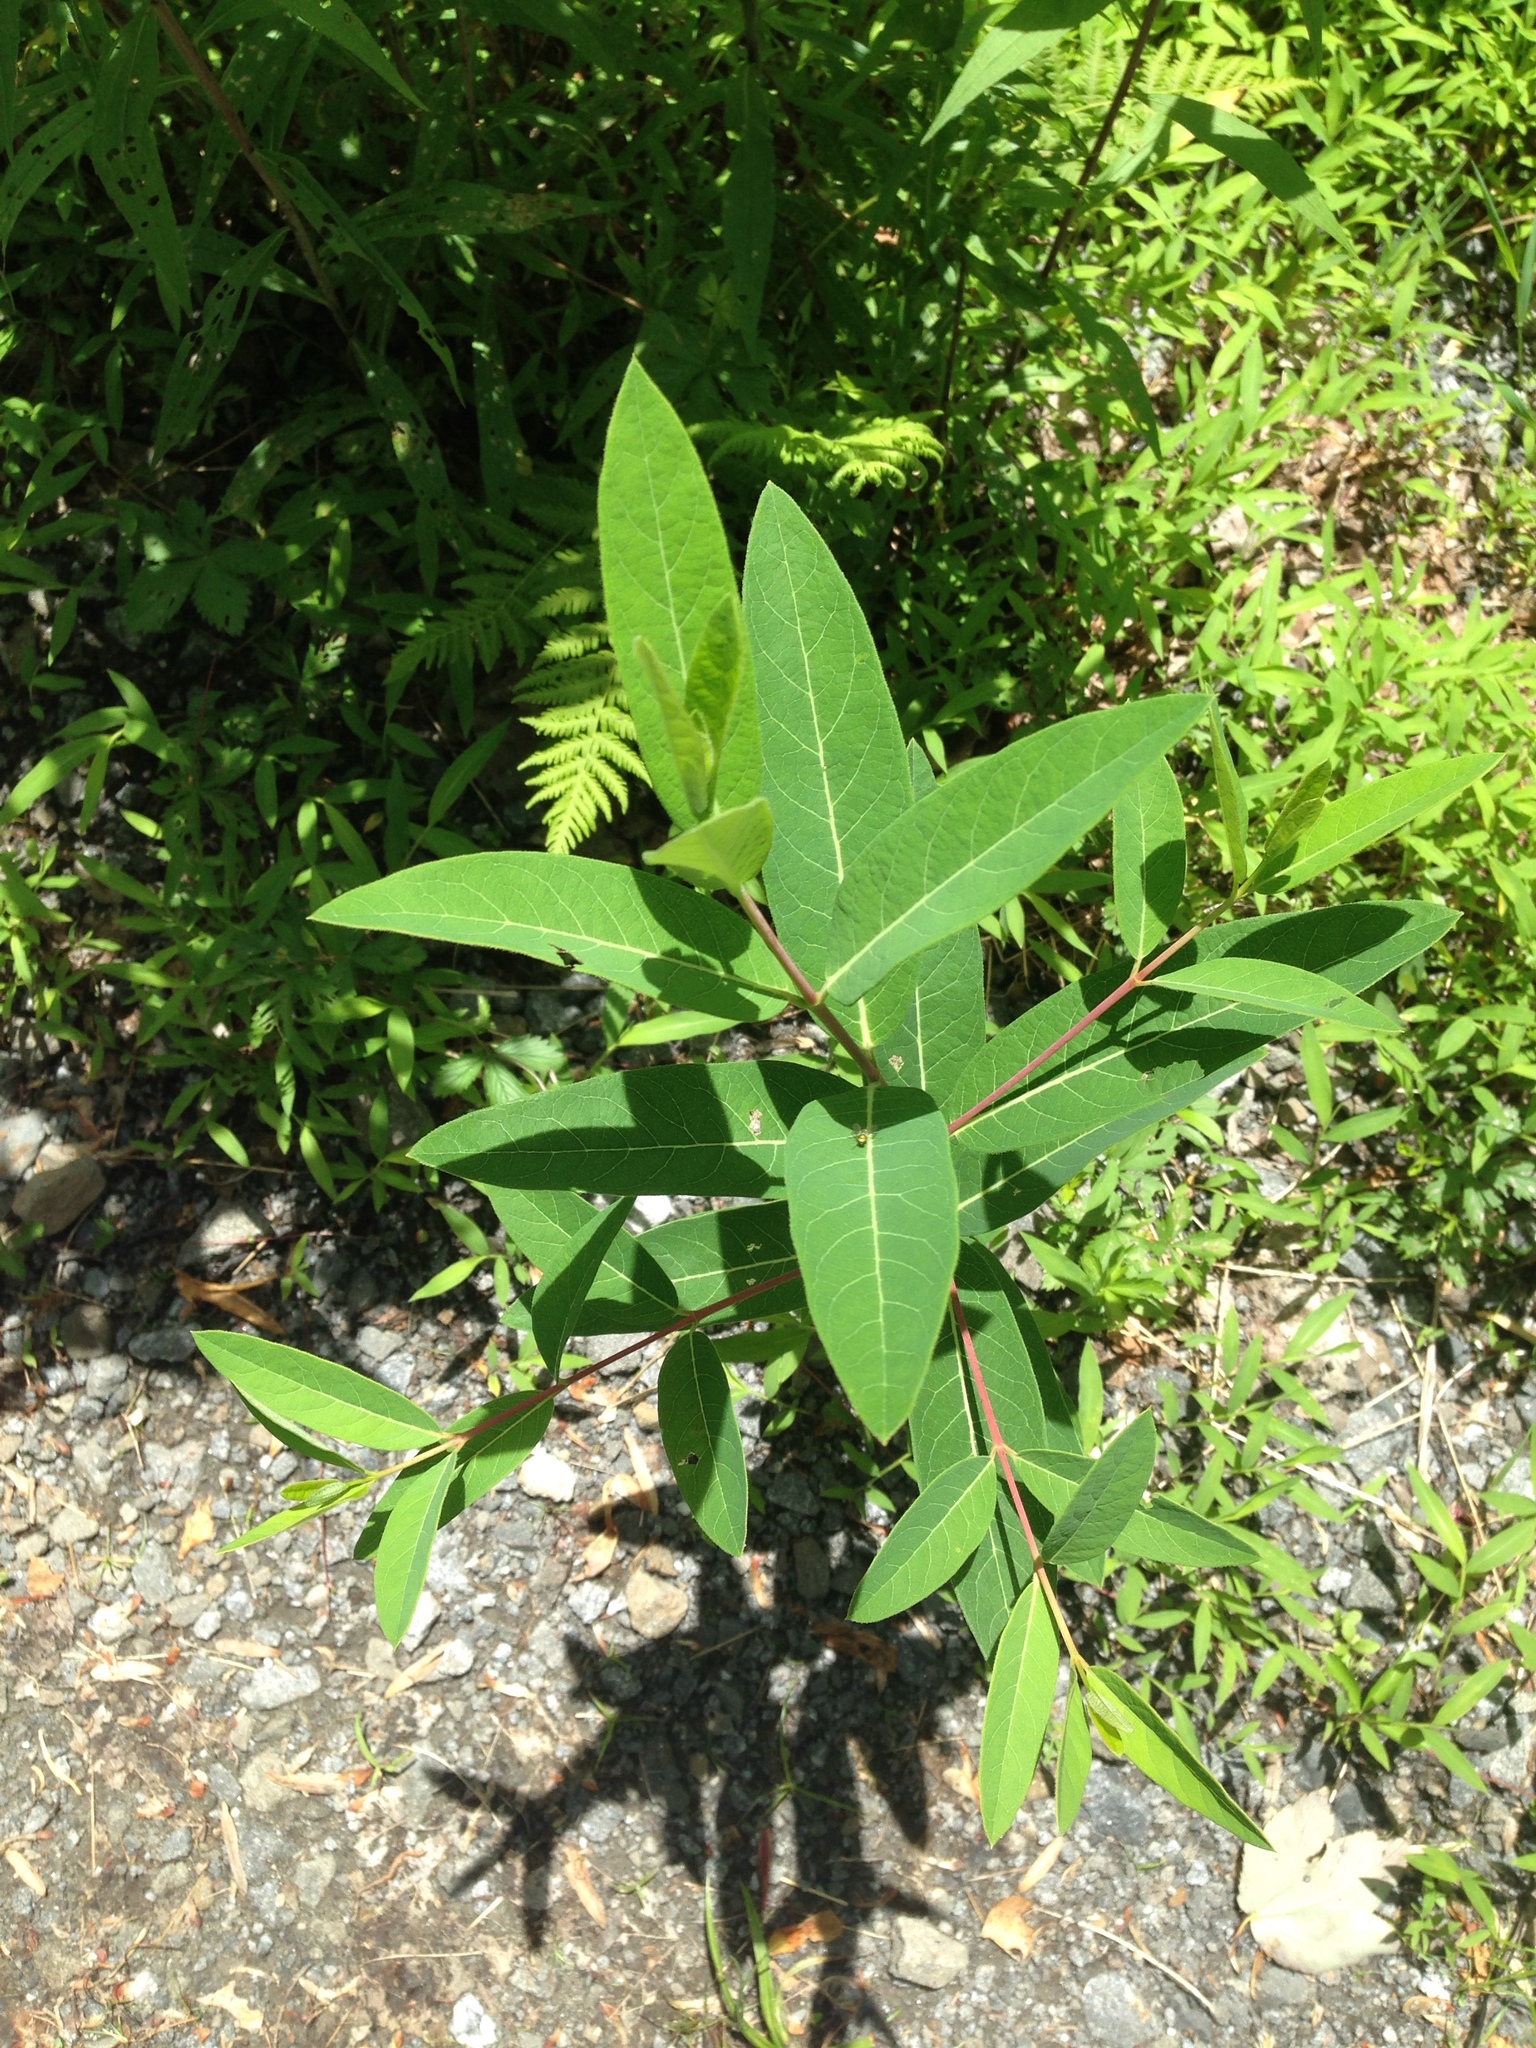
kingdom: Plantae
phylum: Tracheophyta
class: Magnoliopsida
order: Gentianales
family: Apocynaceae
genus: Apocynum
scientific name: Apocynum cannabinum
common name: Hemp dogbane
